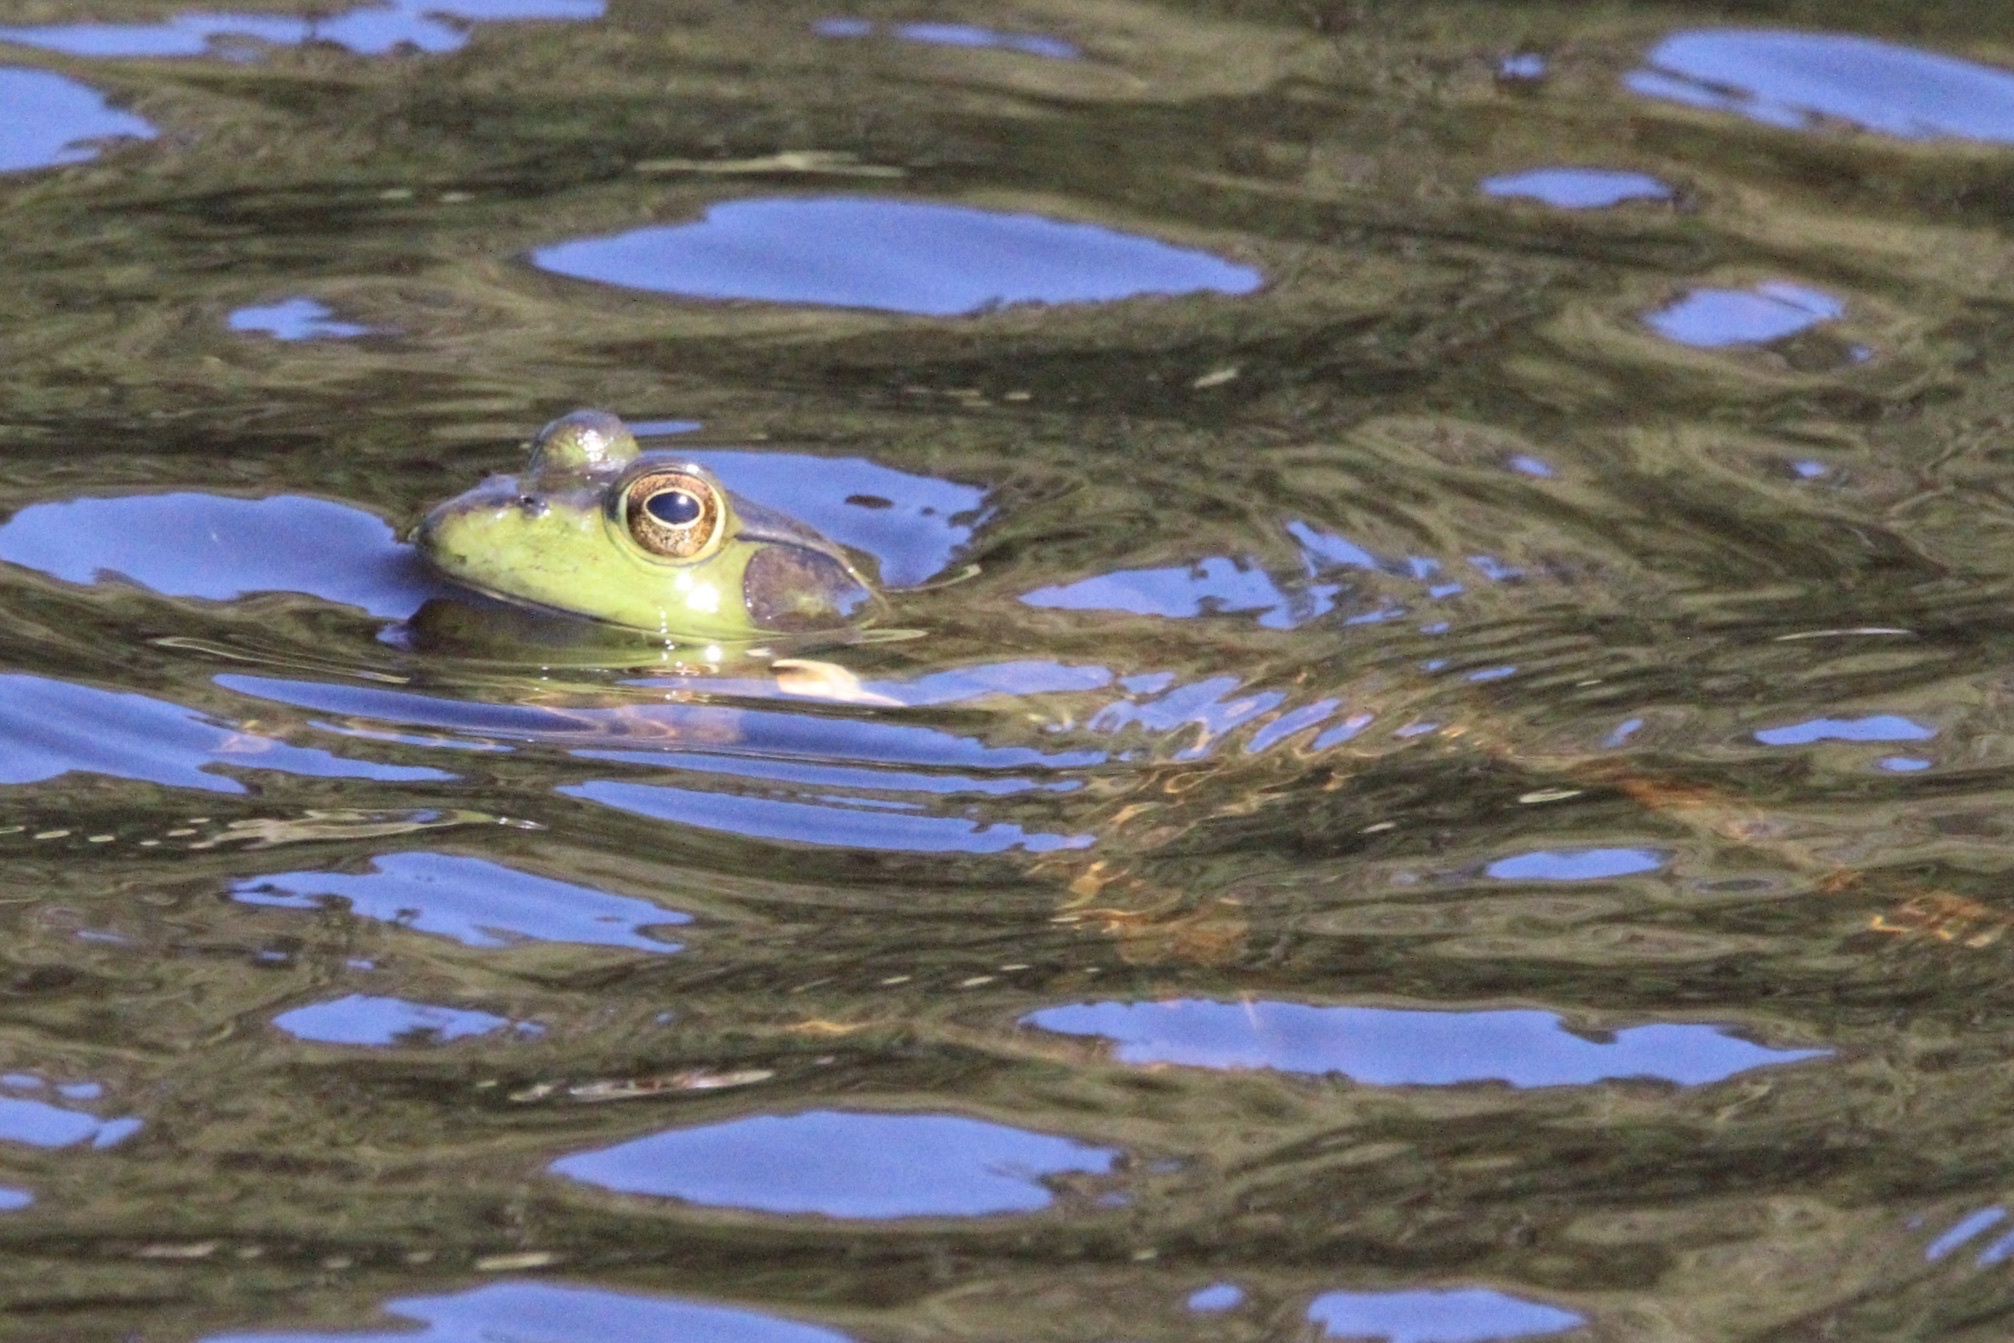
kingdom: Animalia
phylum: Chordata
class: Amphibia
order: Anura
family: Ranidae
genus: Lithobates
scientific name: Lithobates catesbeianus
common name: American bullfrog
